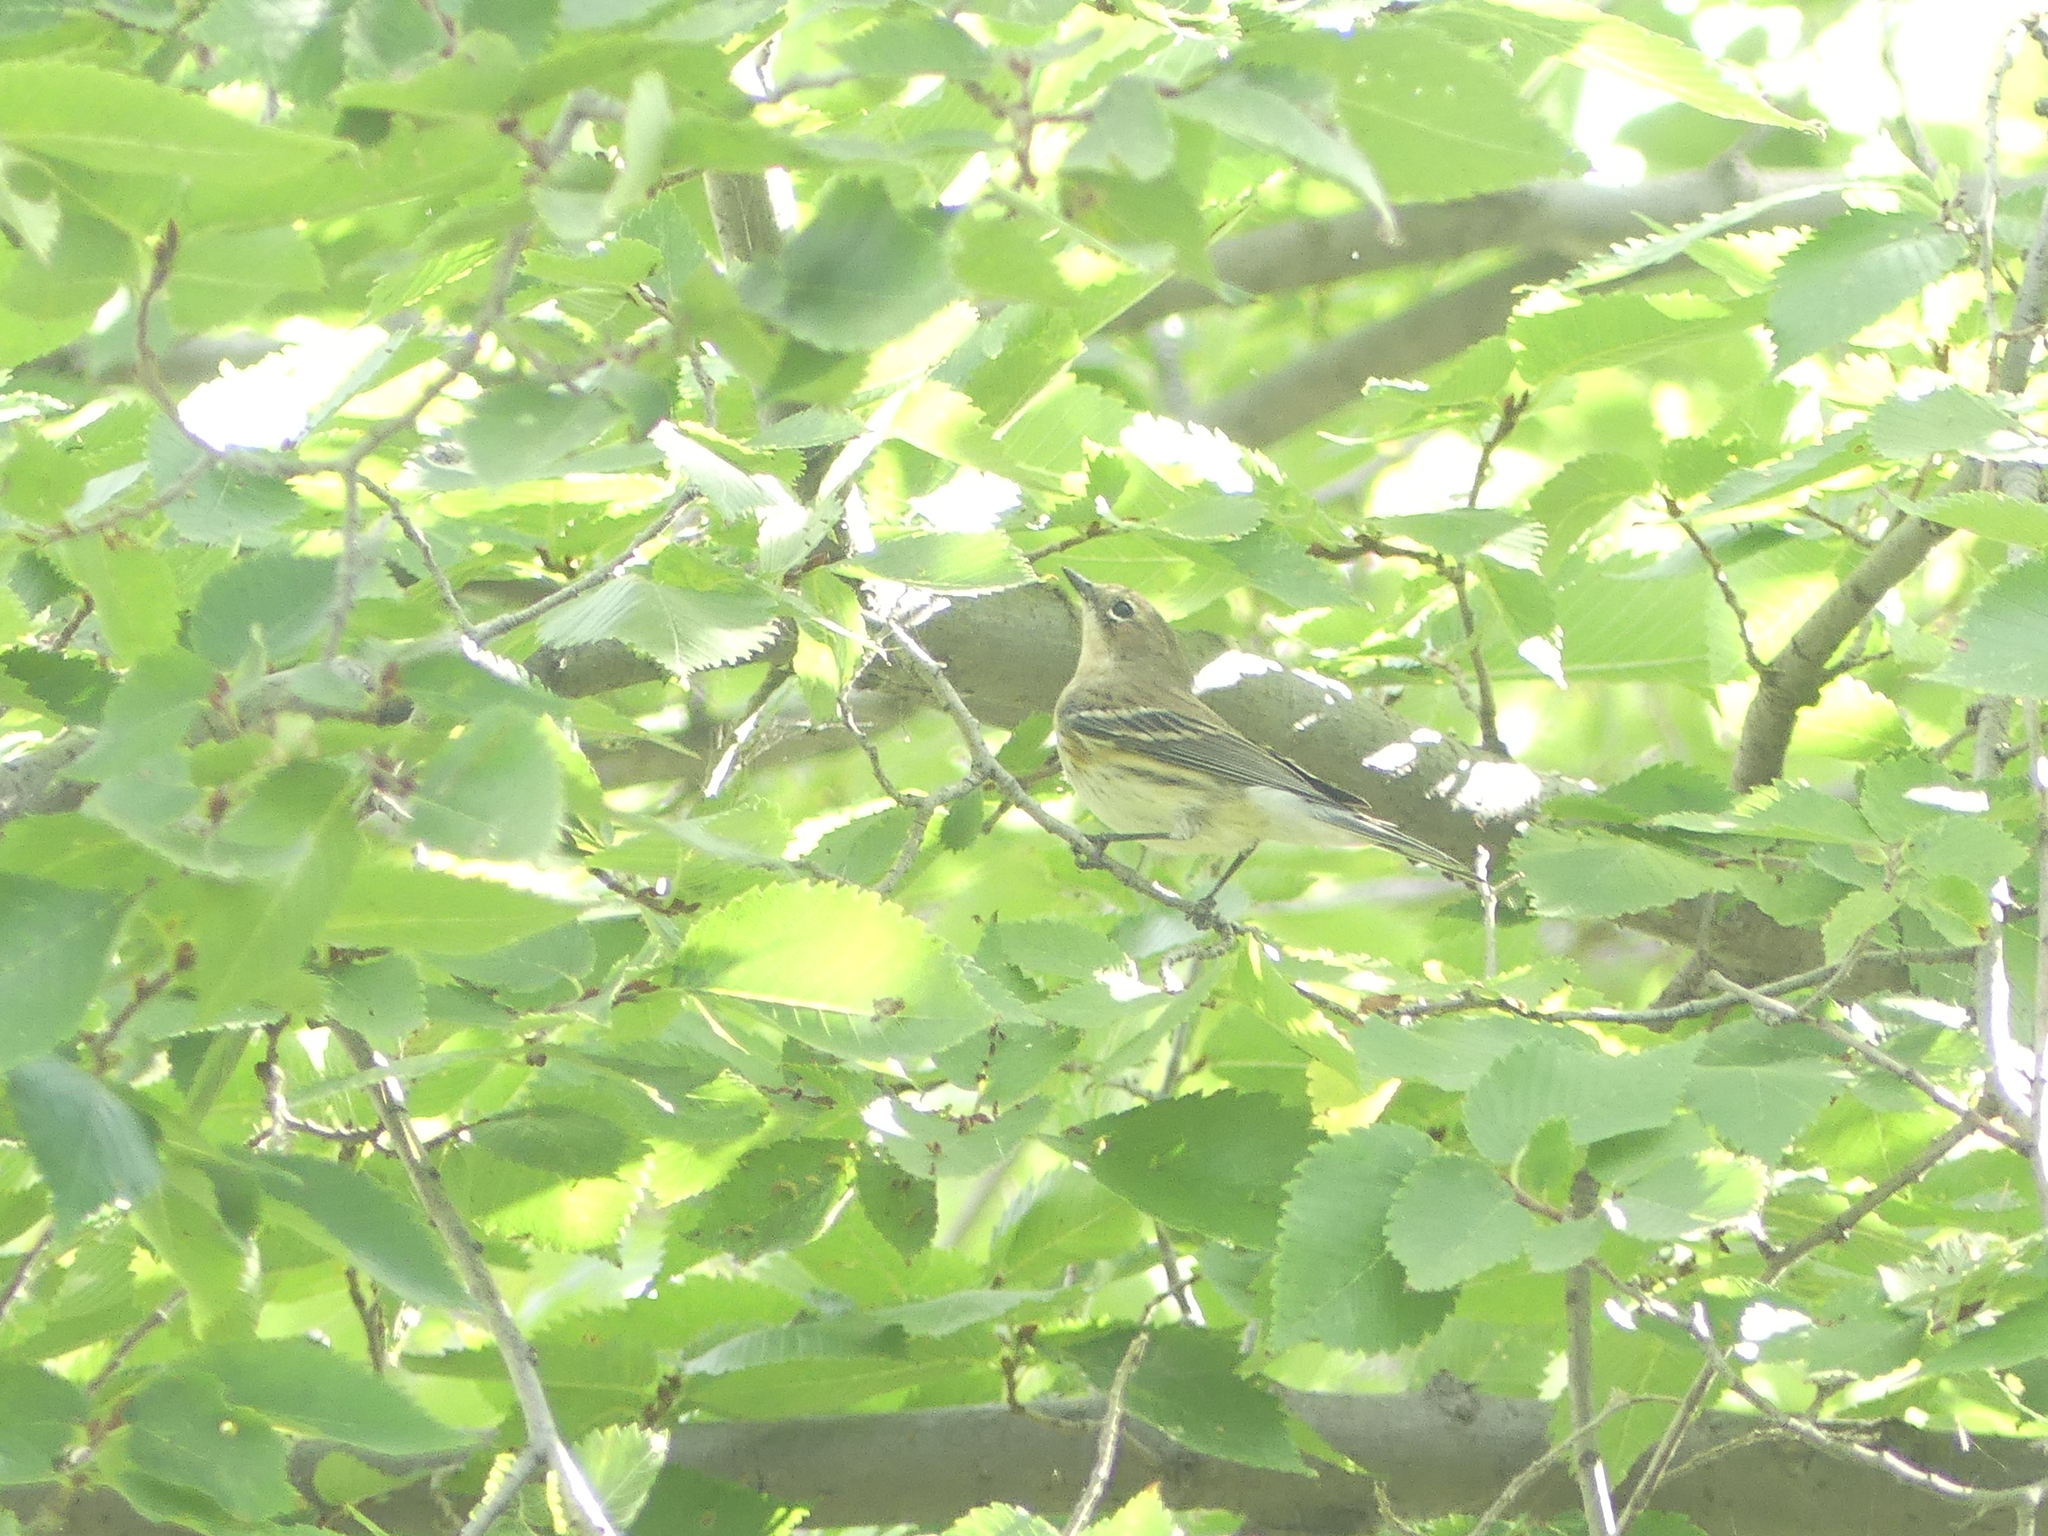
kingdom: Animalia
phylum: Chordata
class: Aves
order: Passeriformes
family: Parulidae
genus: Setophaga
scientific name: Setophaga coronata
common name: Myrtle warbler
